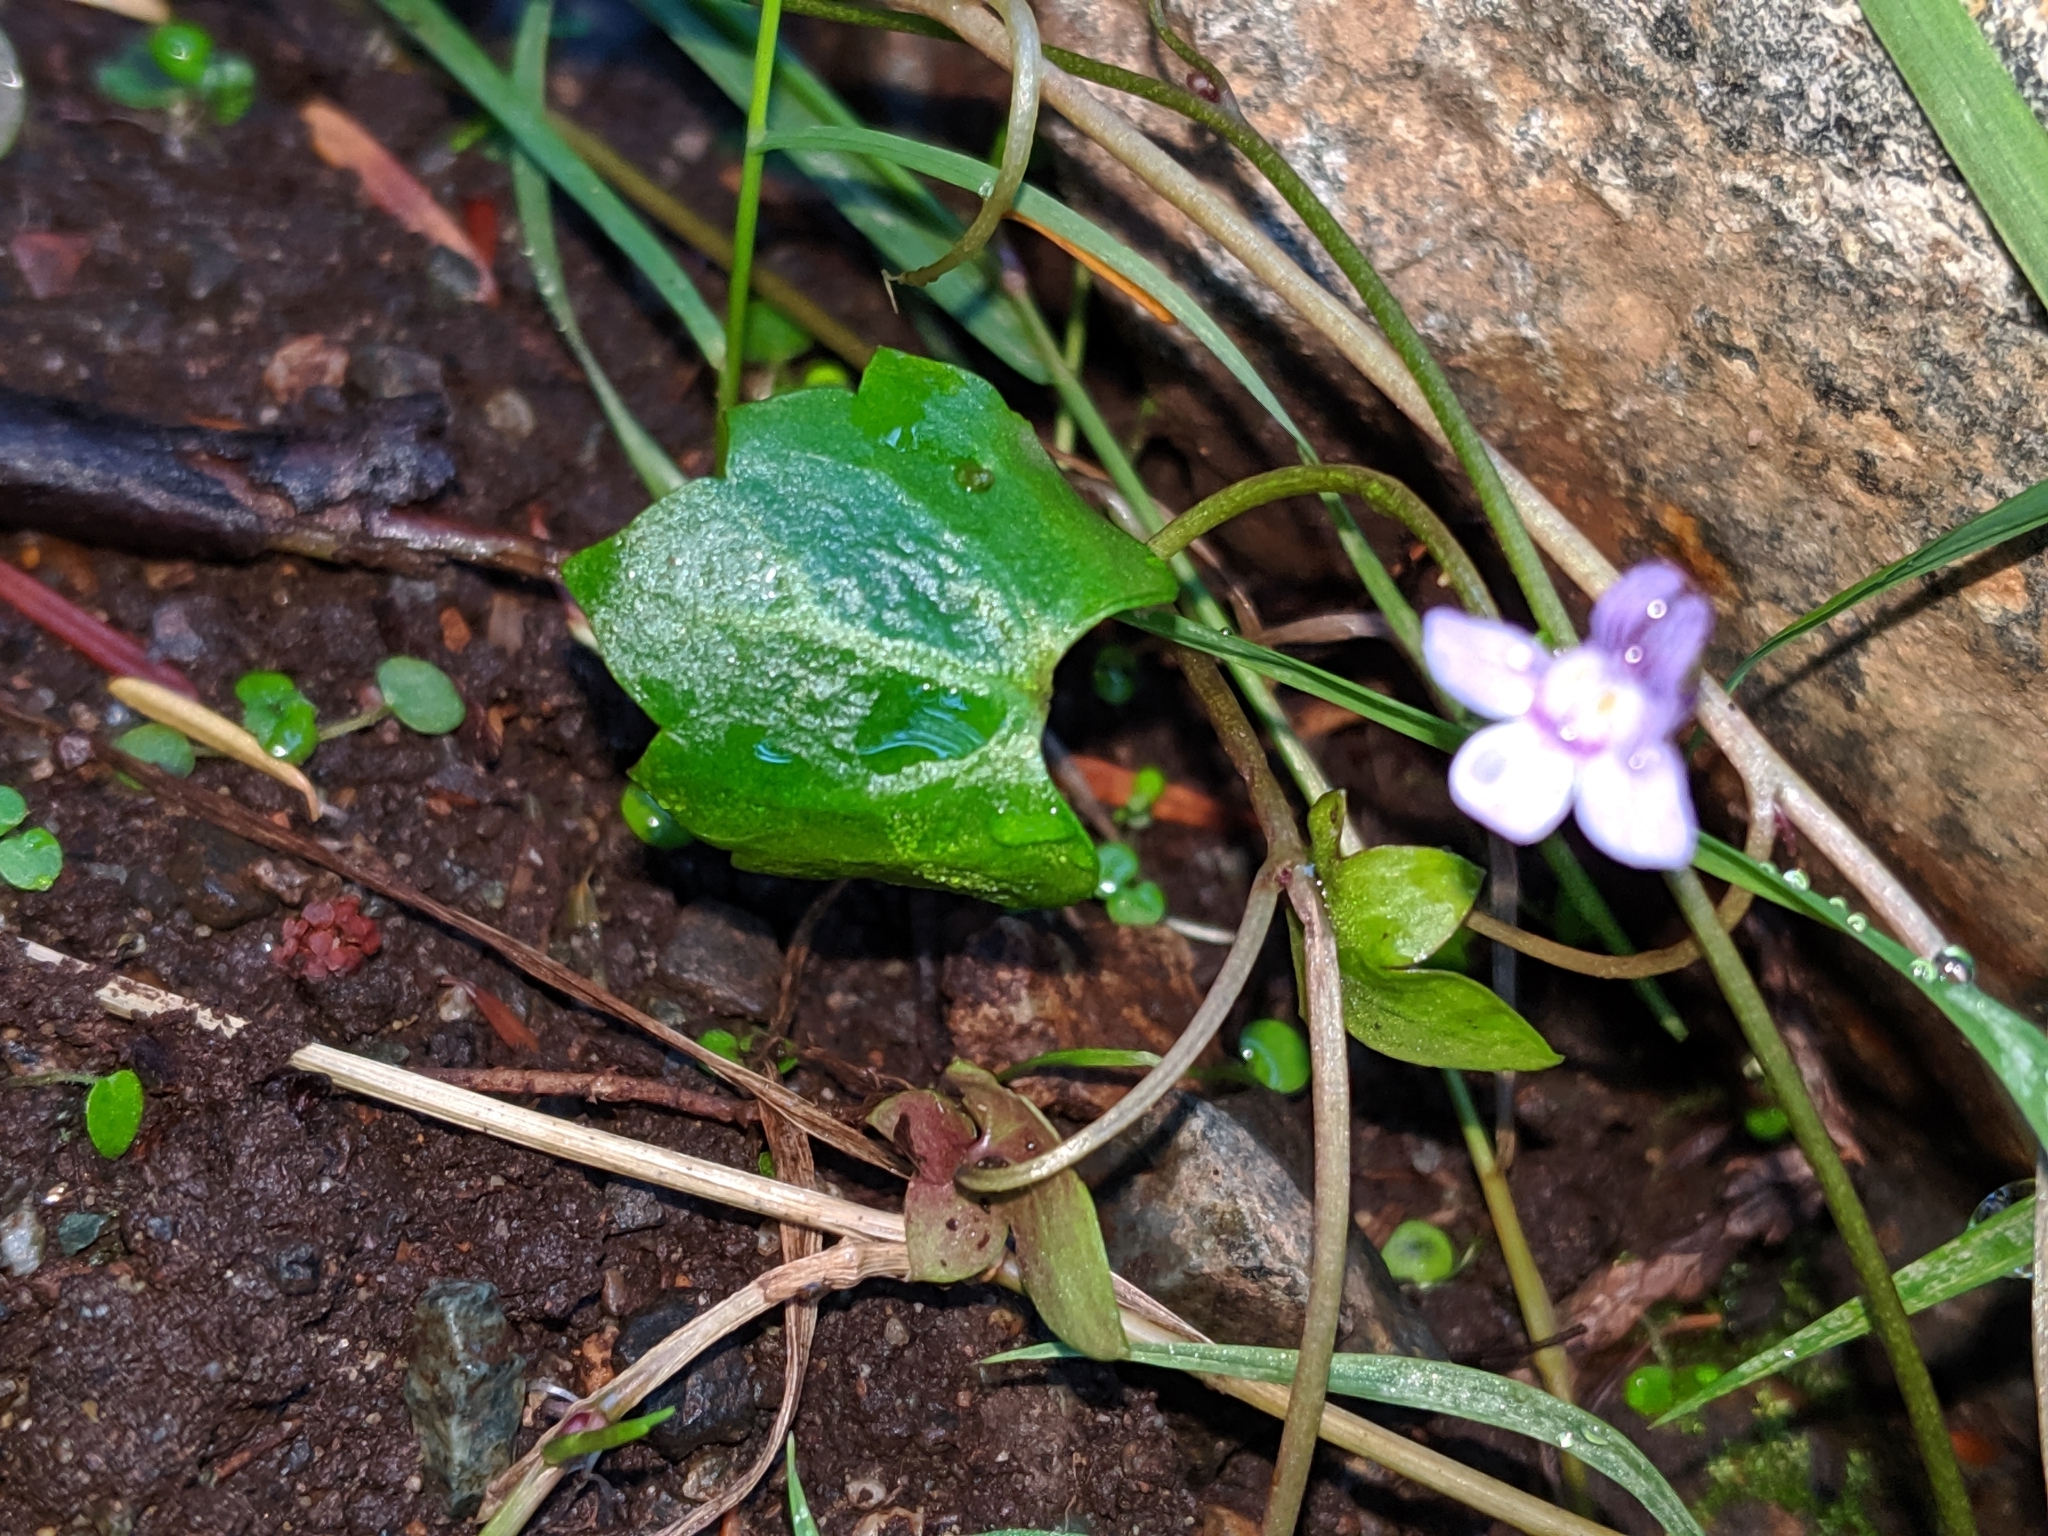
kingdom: Plantae
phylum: Tracheophyta
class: Magnoliopsida
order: Lamiales
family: Plantaginaceae
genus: Cymbalaria
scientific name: Cymbalaria muralis
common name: Ivy-leaved toadflax
